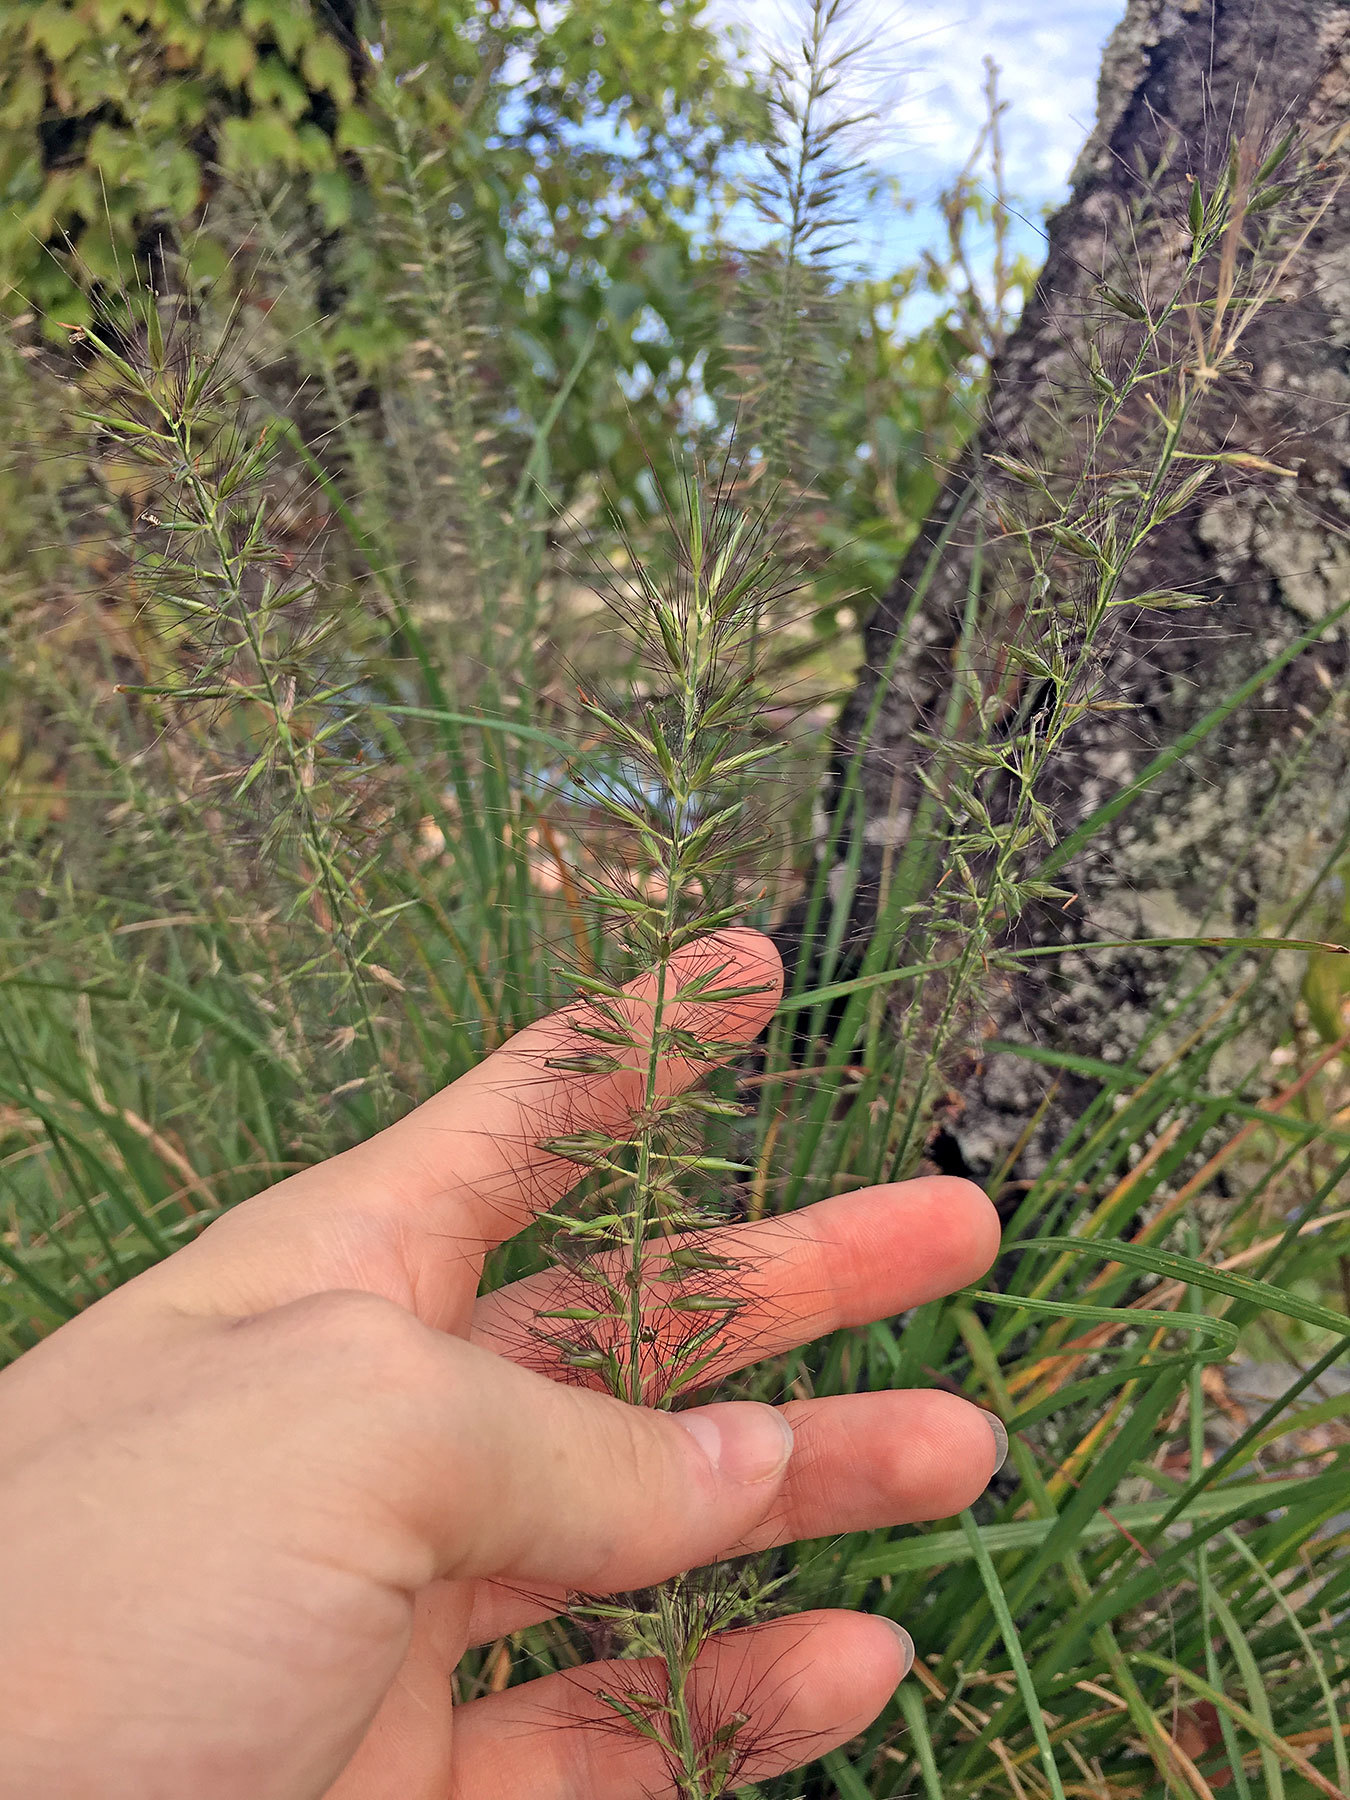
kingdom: Plantae
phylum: Tracheophyta
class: Liliopsida
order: Poales
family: Poaceae
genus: Cenchrus
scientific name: Cenchrus alopecuroides
